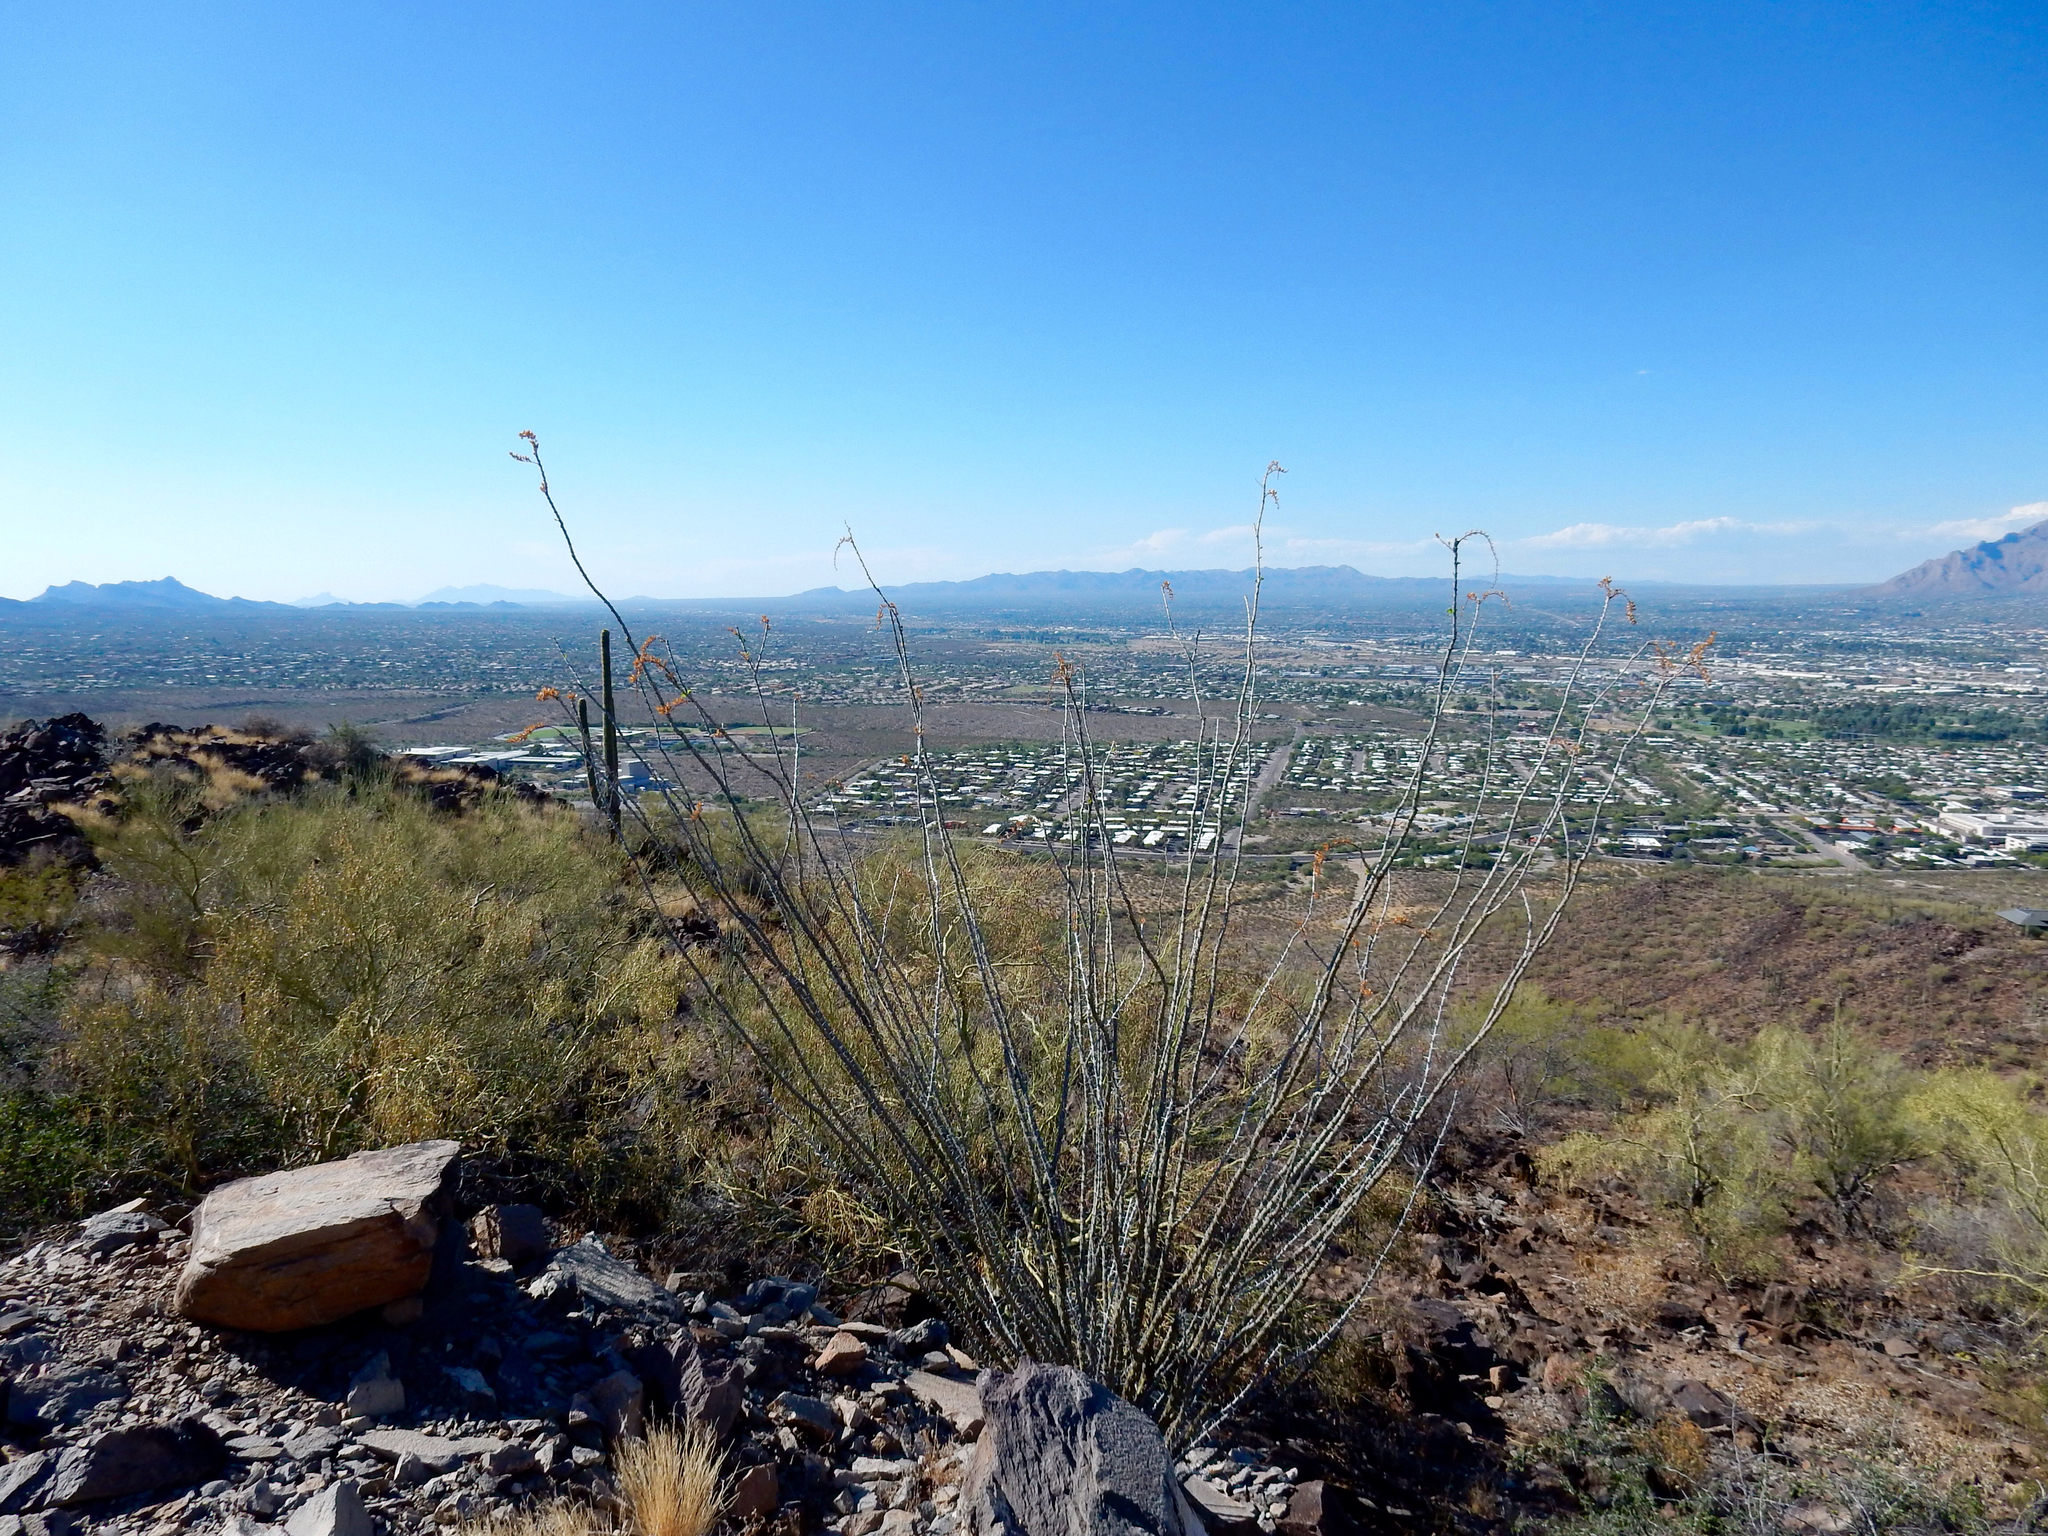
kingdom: Plantae
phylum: Tracheophyta
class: Magnoliopsida
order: Ericales
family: Fouquieriaceae
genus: Fouquieria
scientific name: Fouquieria splendens
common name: Vine-cactus
